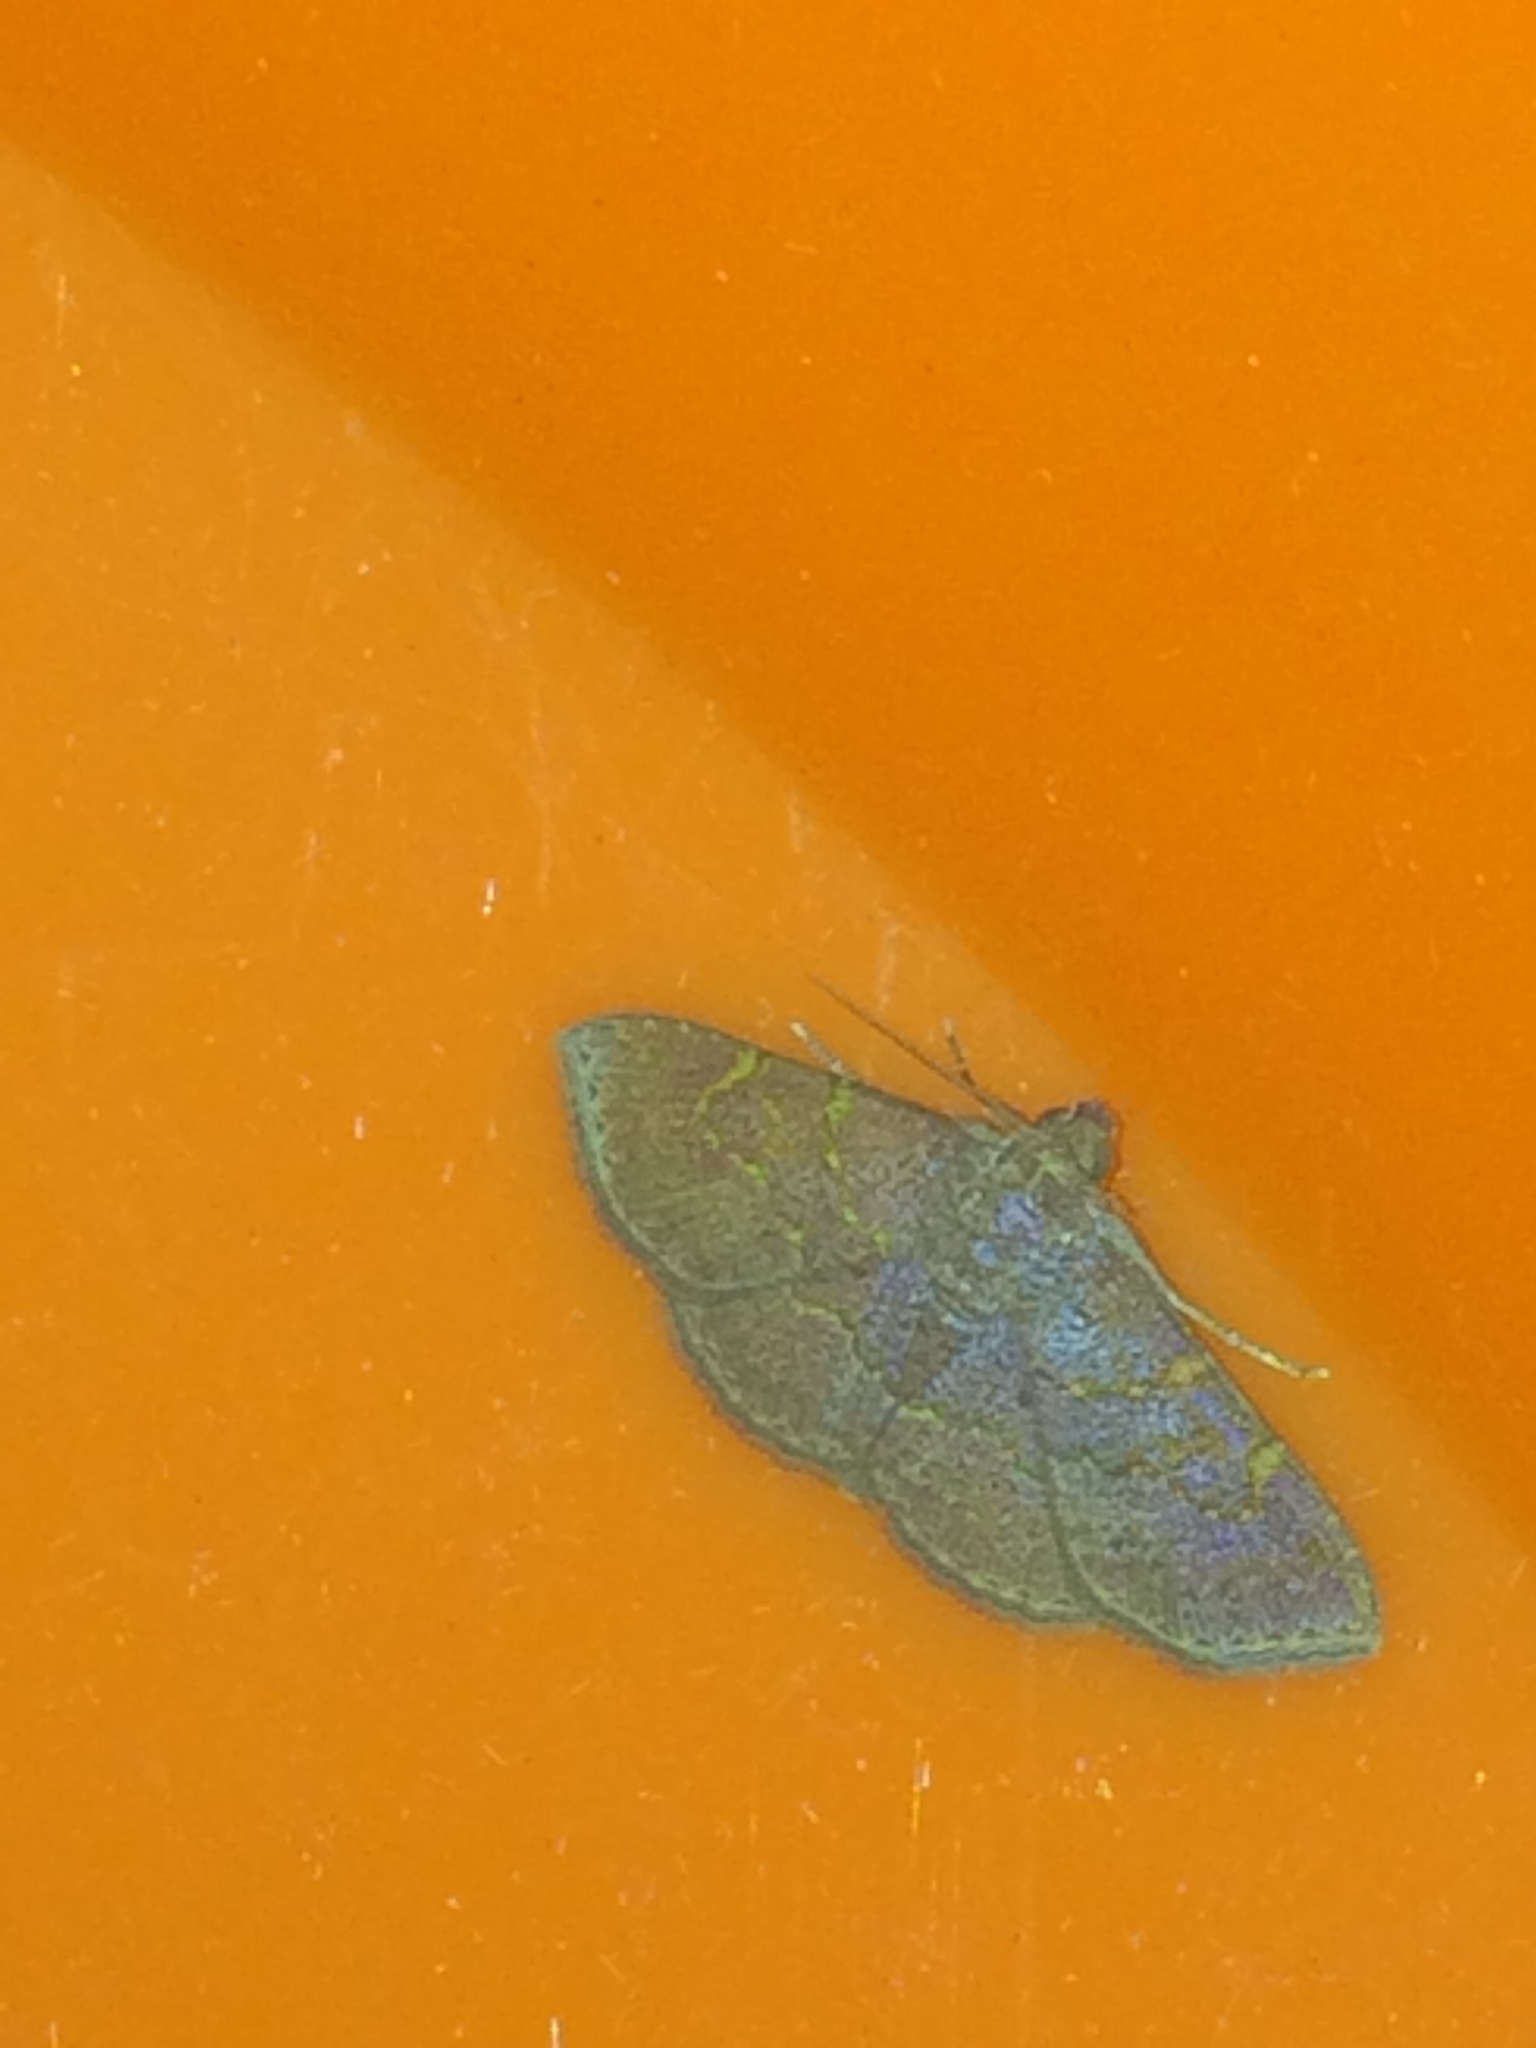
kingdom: Animalia
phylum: Arthropoda
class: Insecta
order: Lepidoptera
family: Erebidae
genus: Antiblemma
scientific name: Antiblemma perva
